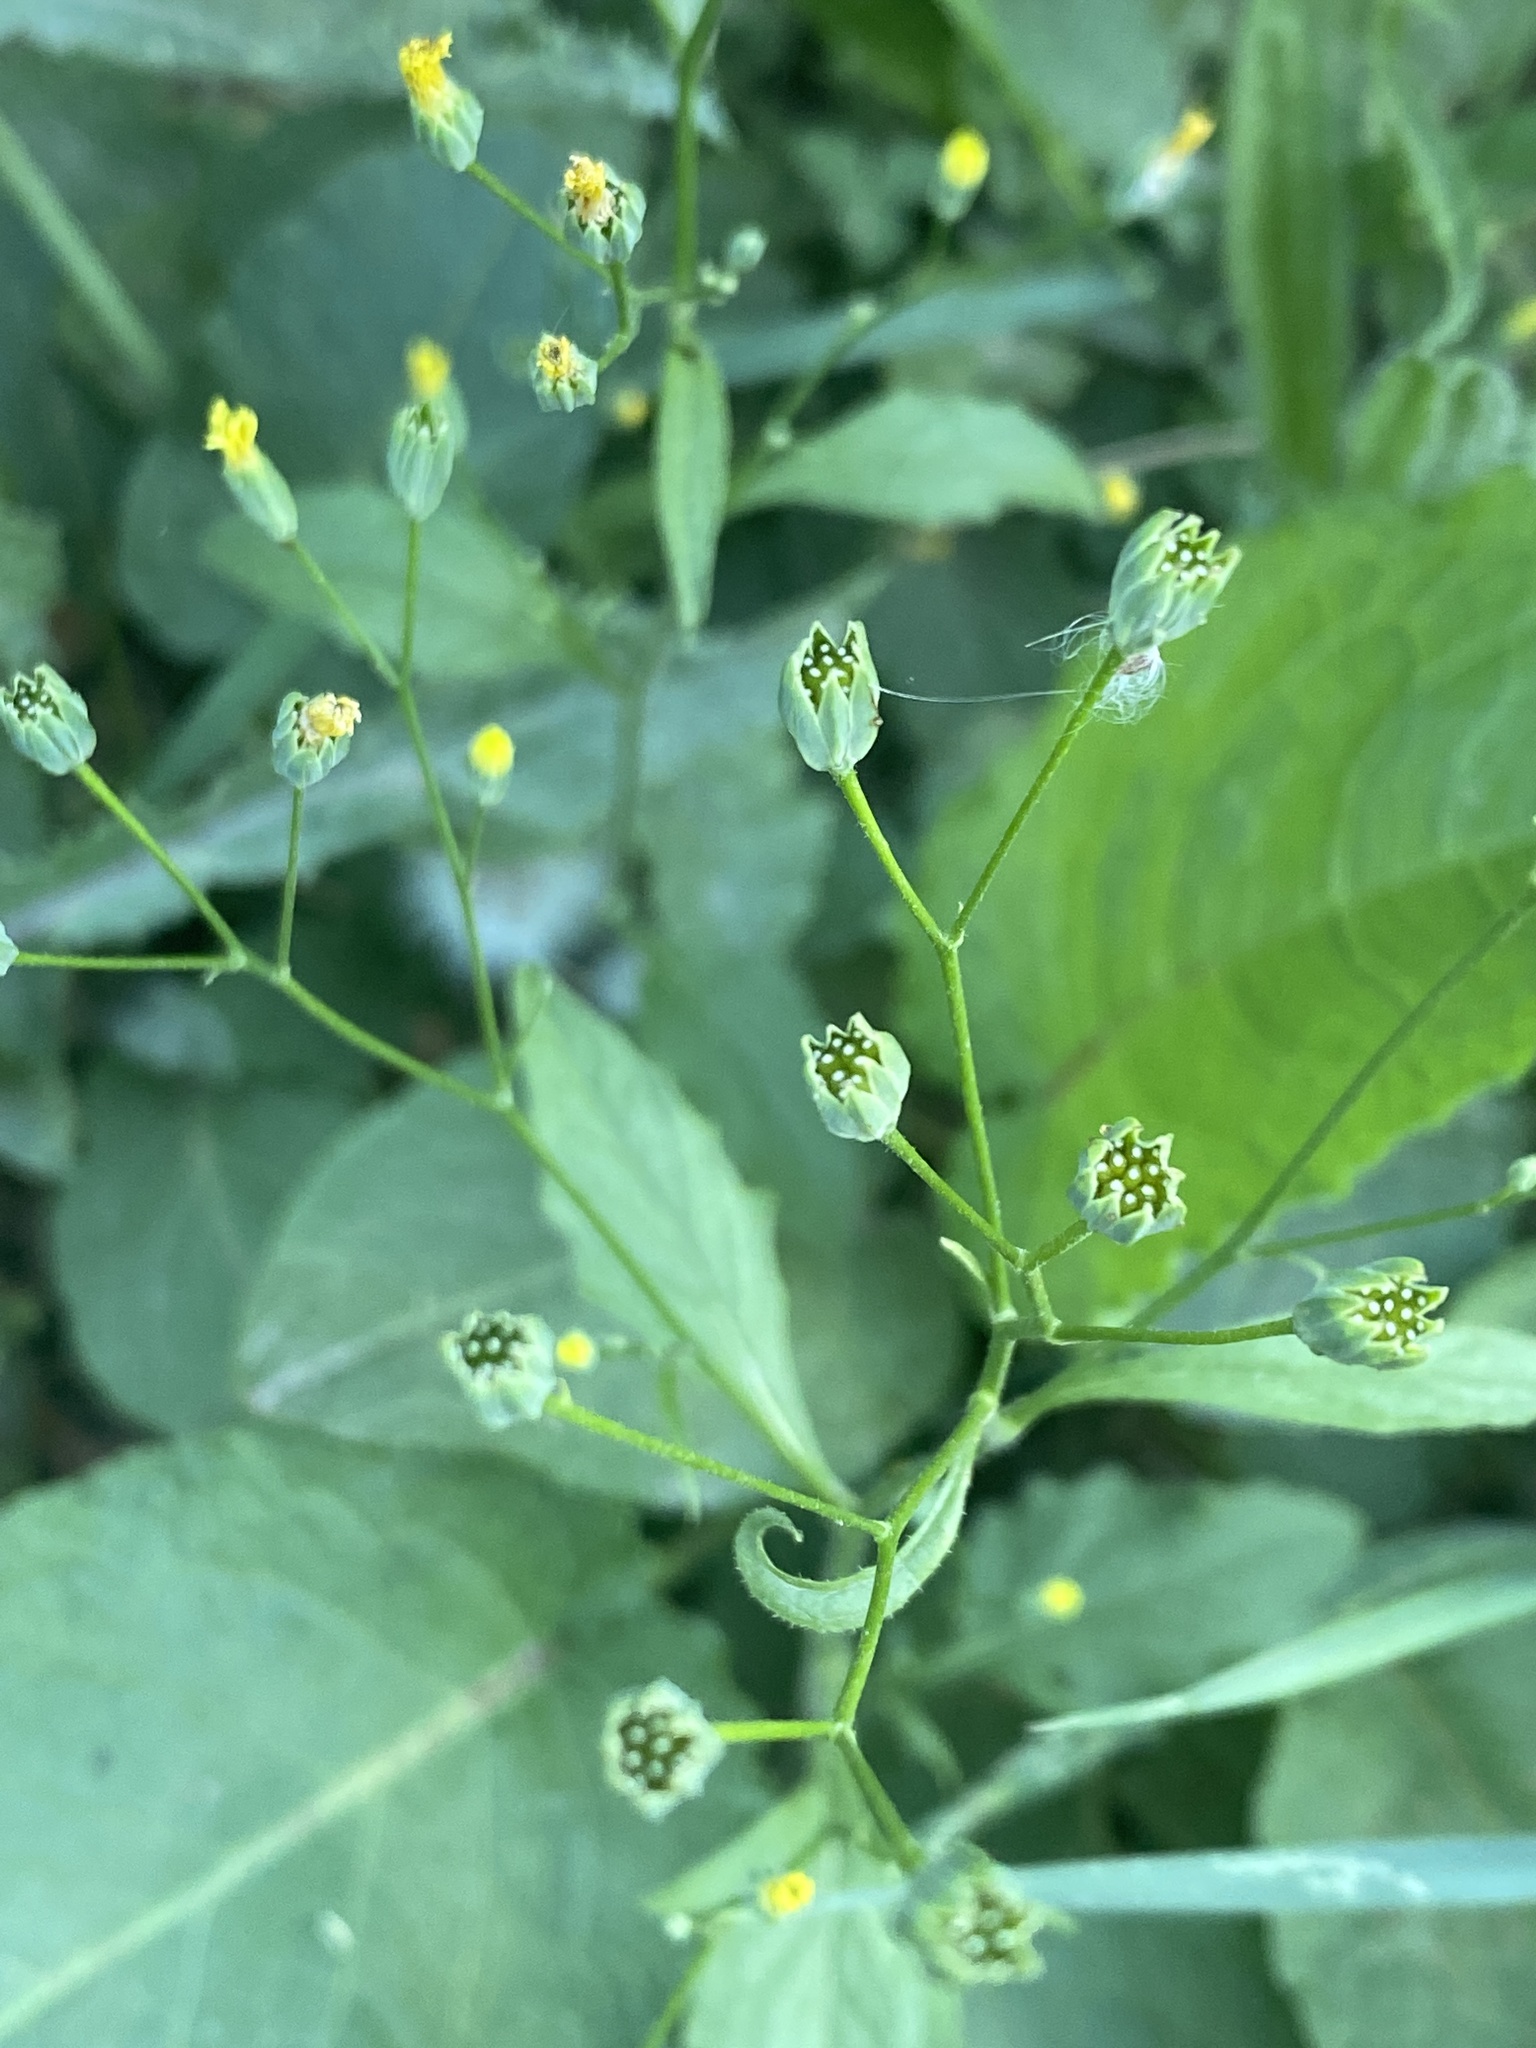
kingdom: Plantae
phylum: Tracheophyta
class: Magnoliopsida
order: Asterales
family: Asteraceae
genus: Lapsana
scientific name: Lapsana communis
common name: Nipplewort
